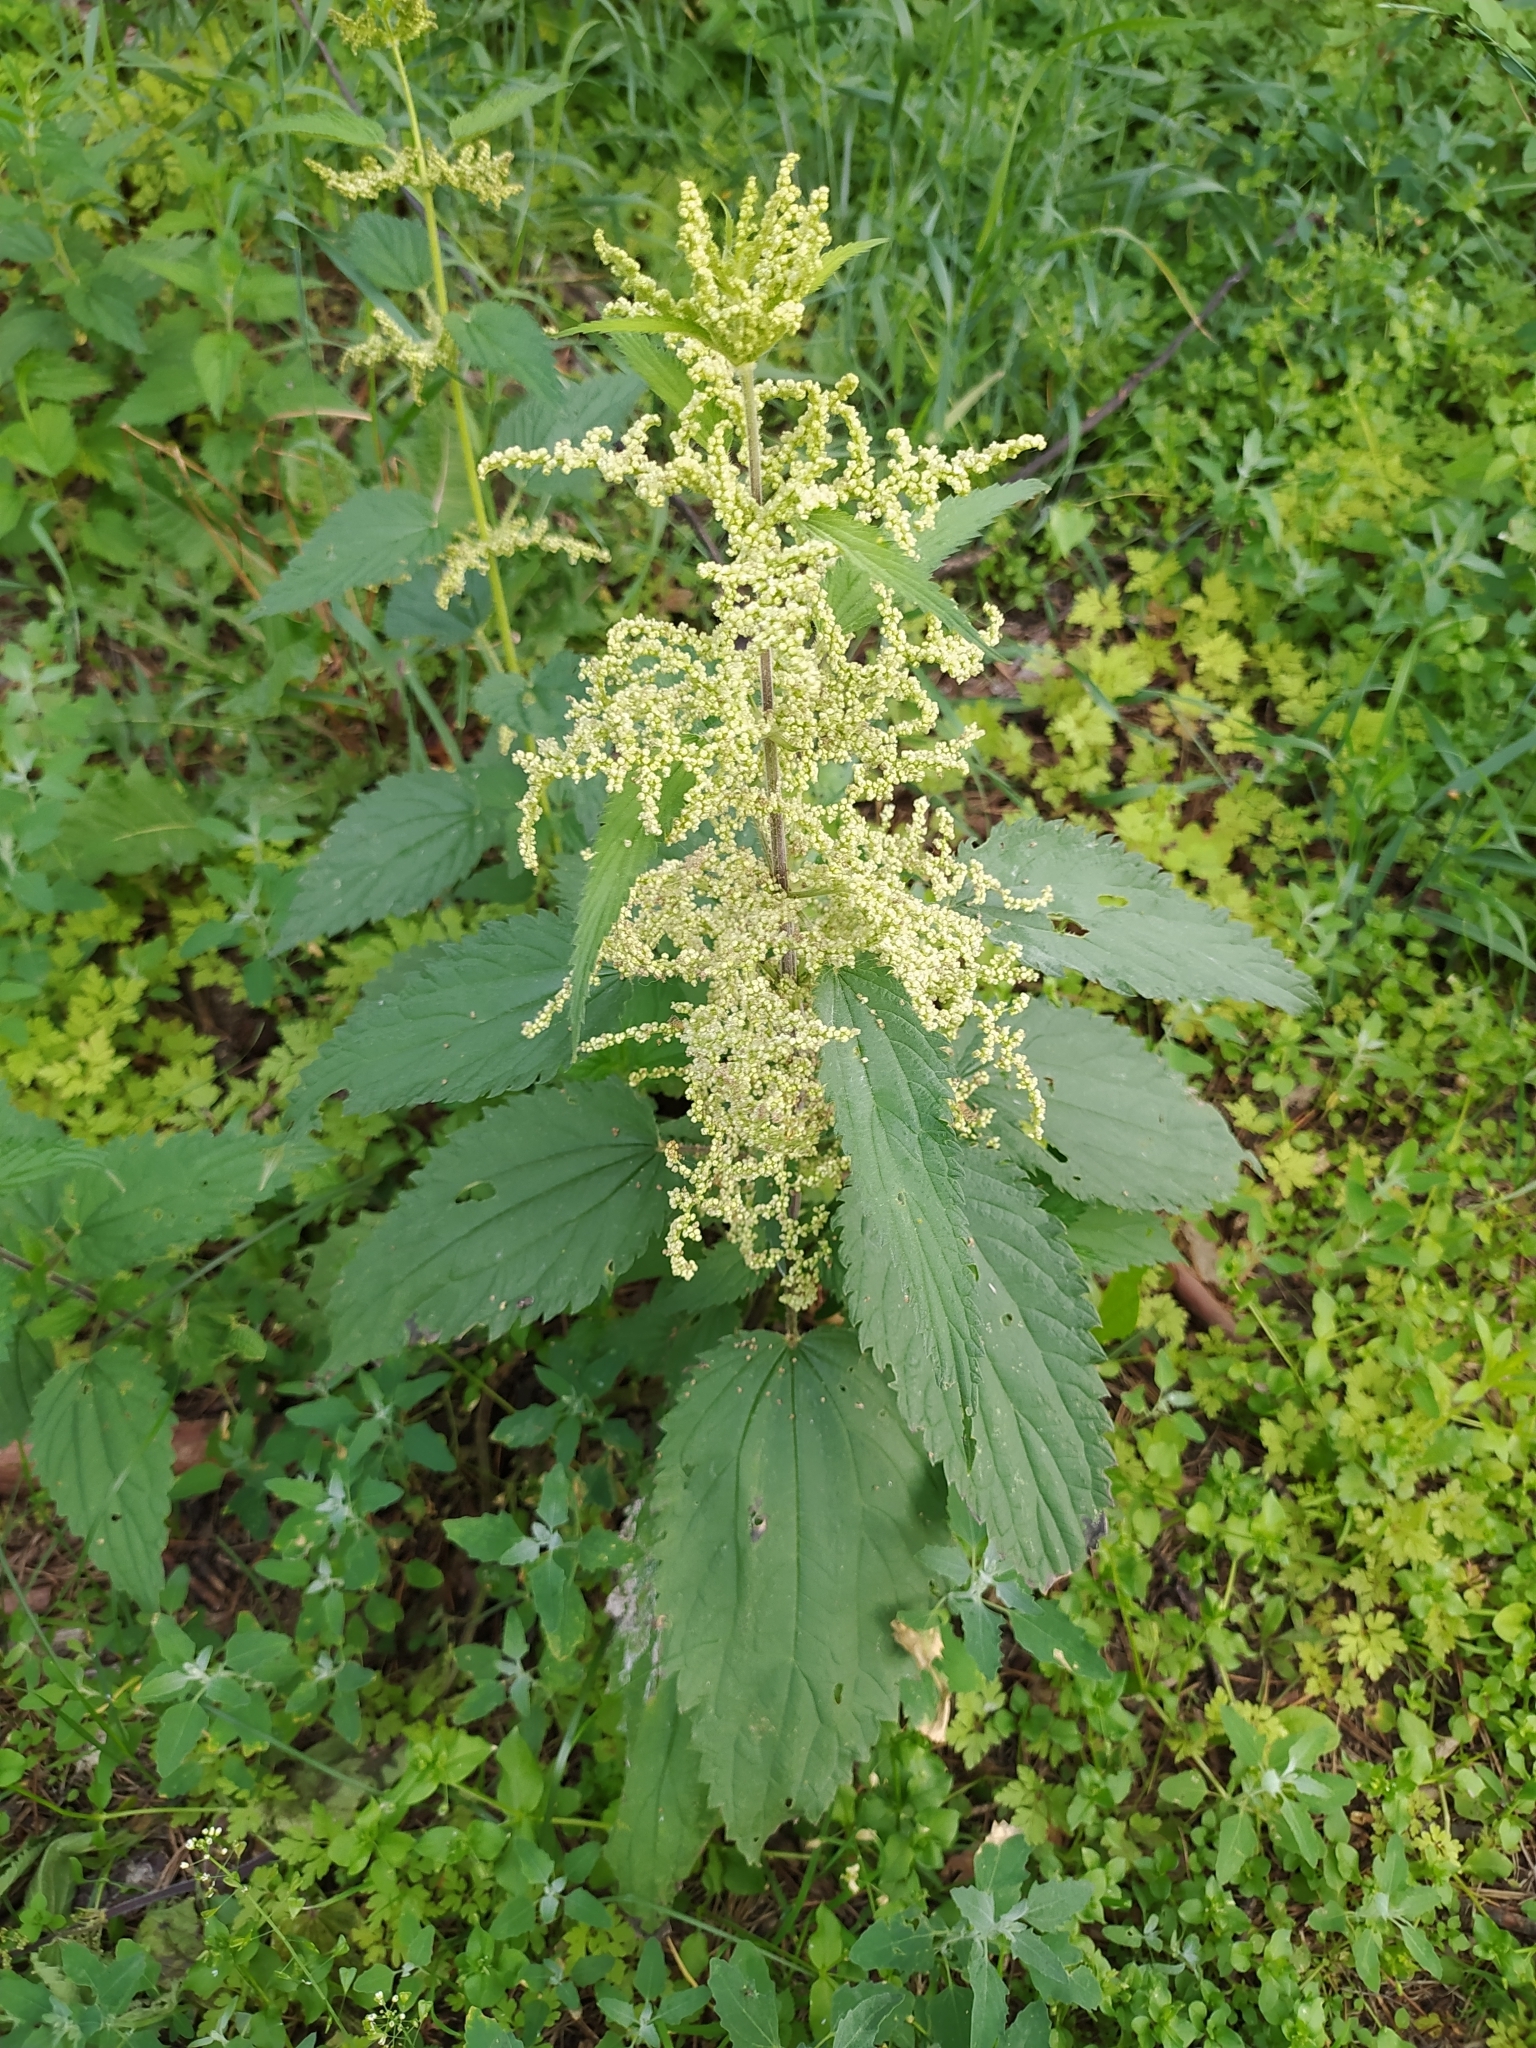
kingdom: Plantae
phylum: Tracheophyta
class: Magnoliopsida
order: Rosales
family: Urticaceae
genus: Urtica
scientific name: Urtica dioica
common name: Common nettle
